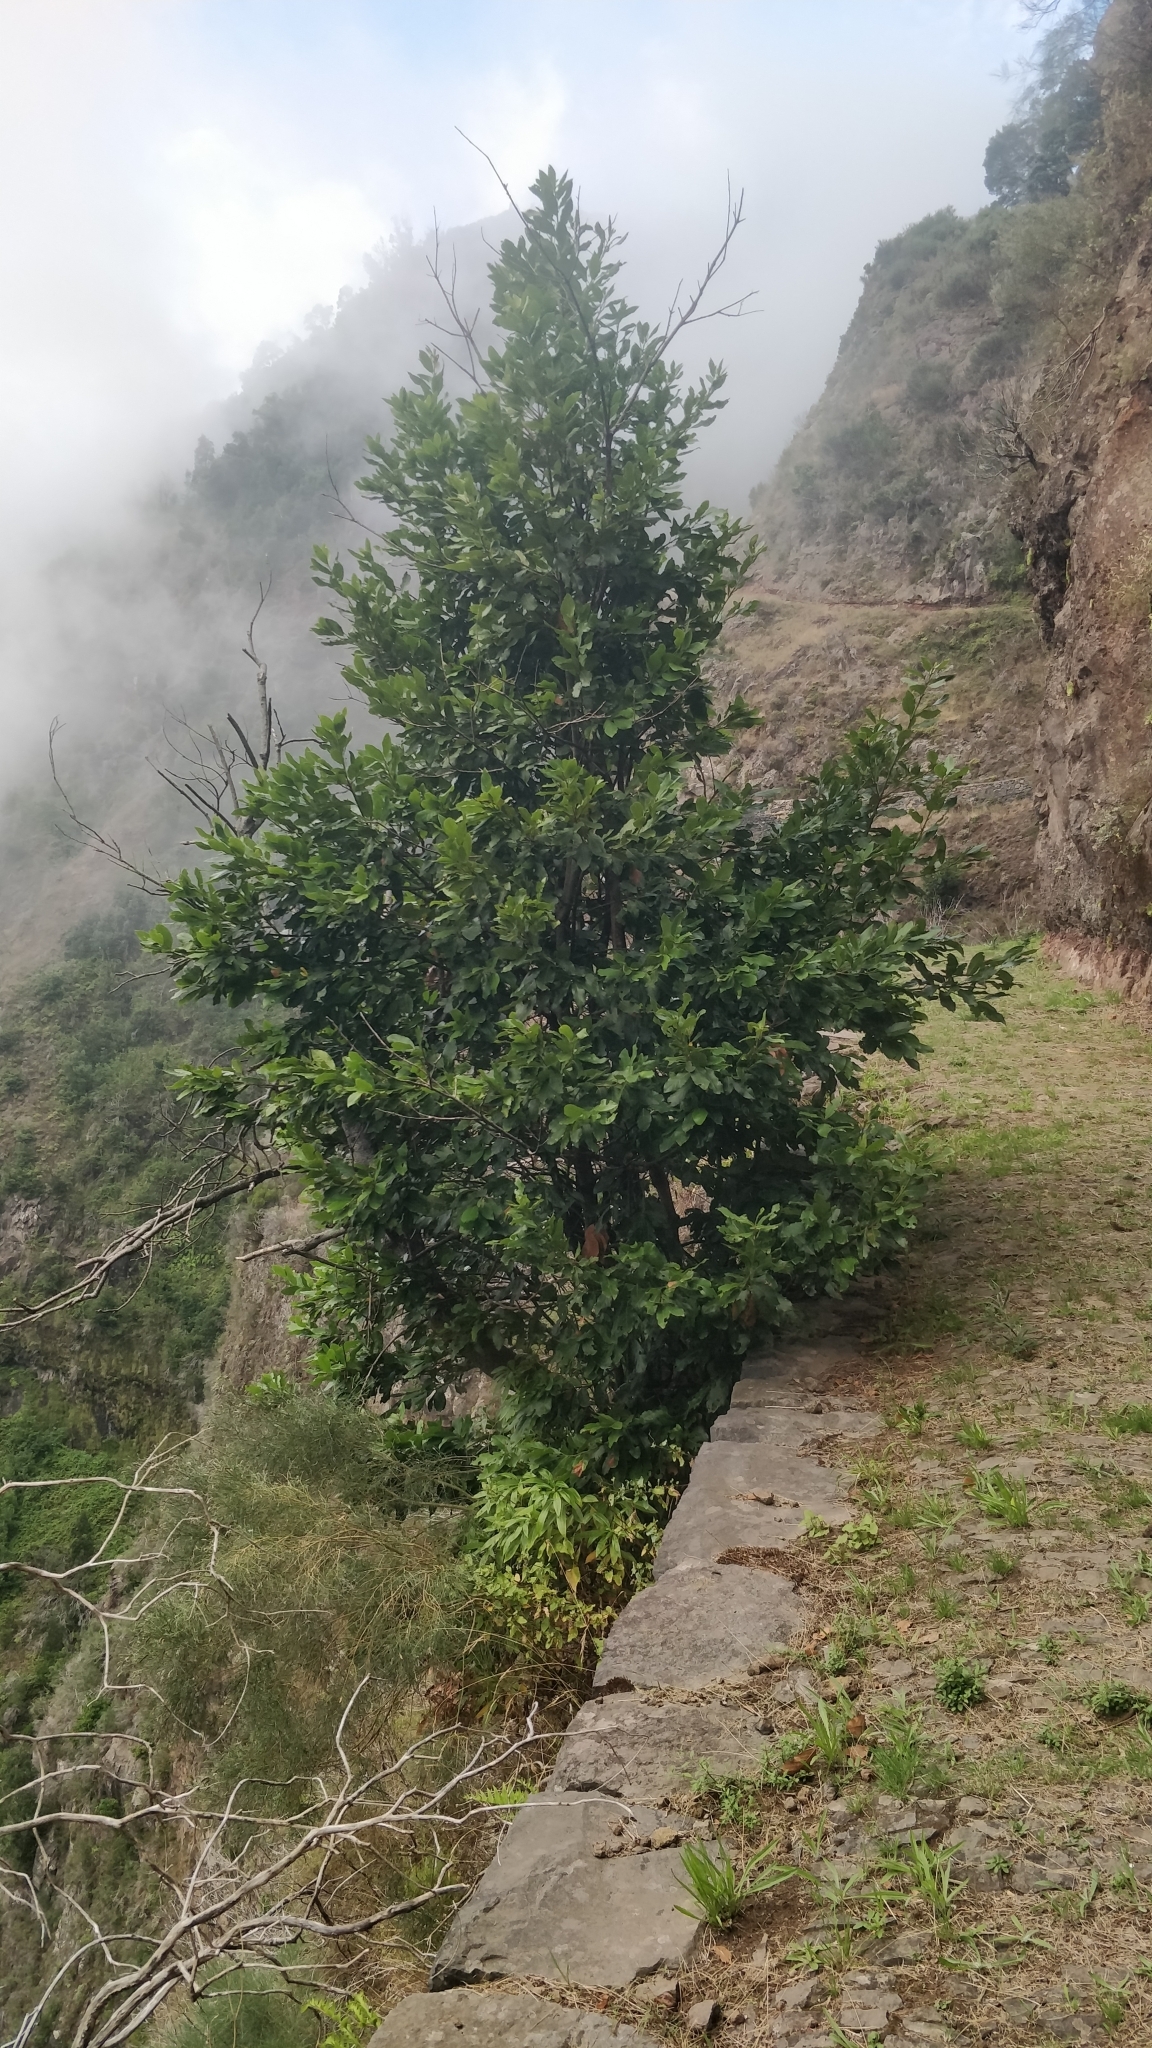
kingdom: Plantae
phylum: Tracheophyta
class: Magnoliopsida
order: Laurales
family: Lauraceae
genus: Laurus
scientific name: Laurus novocanariensis
